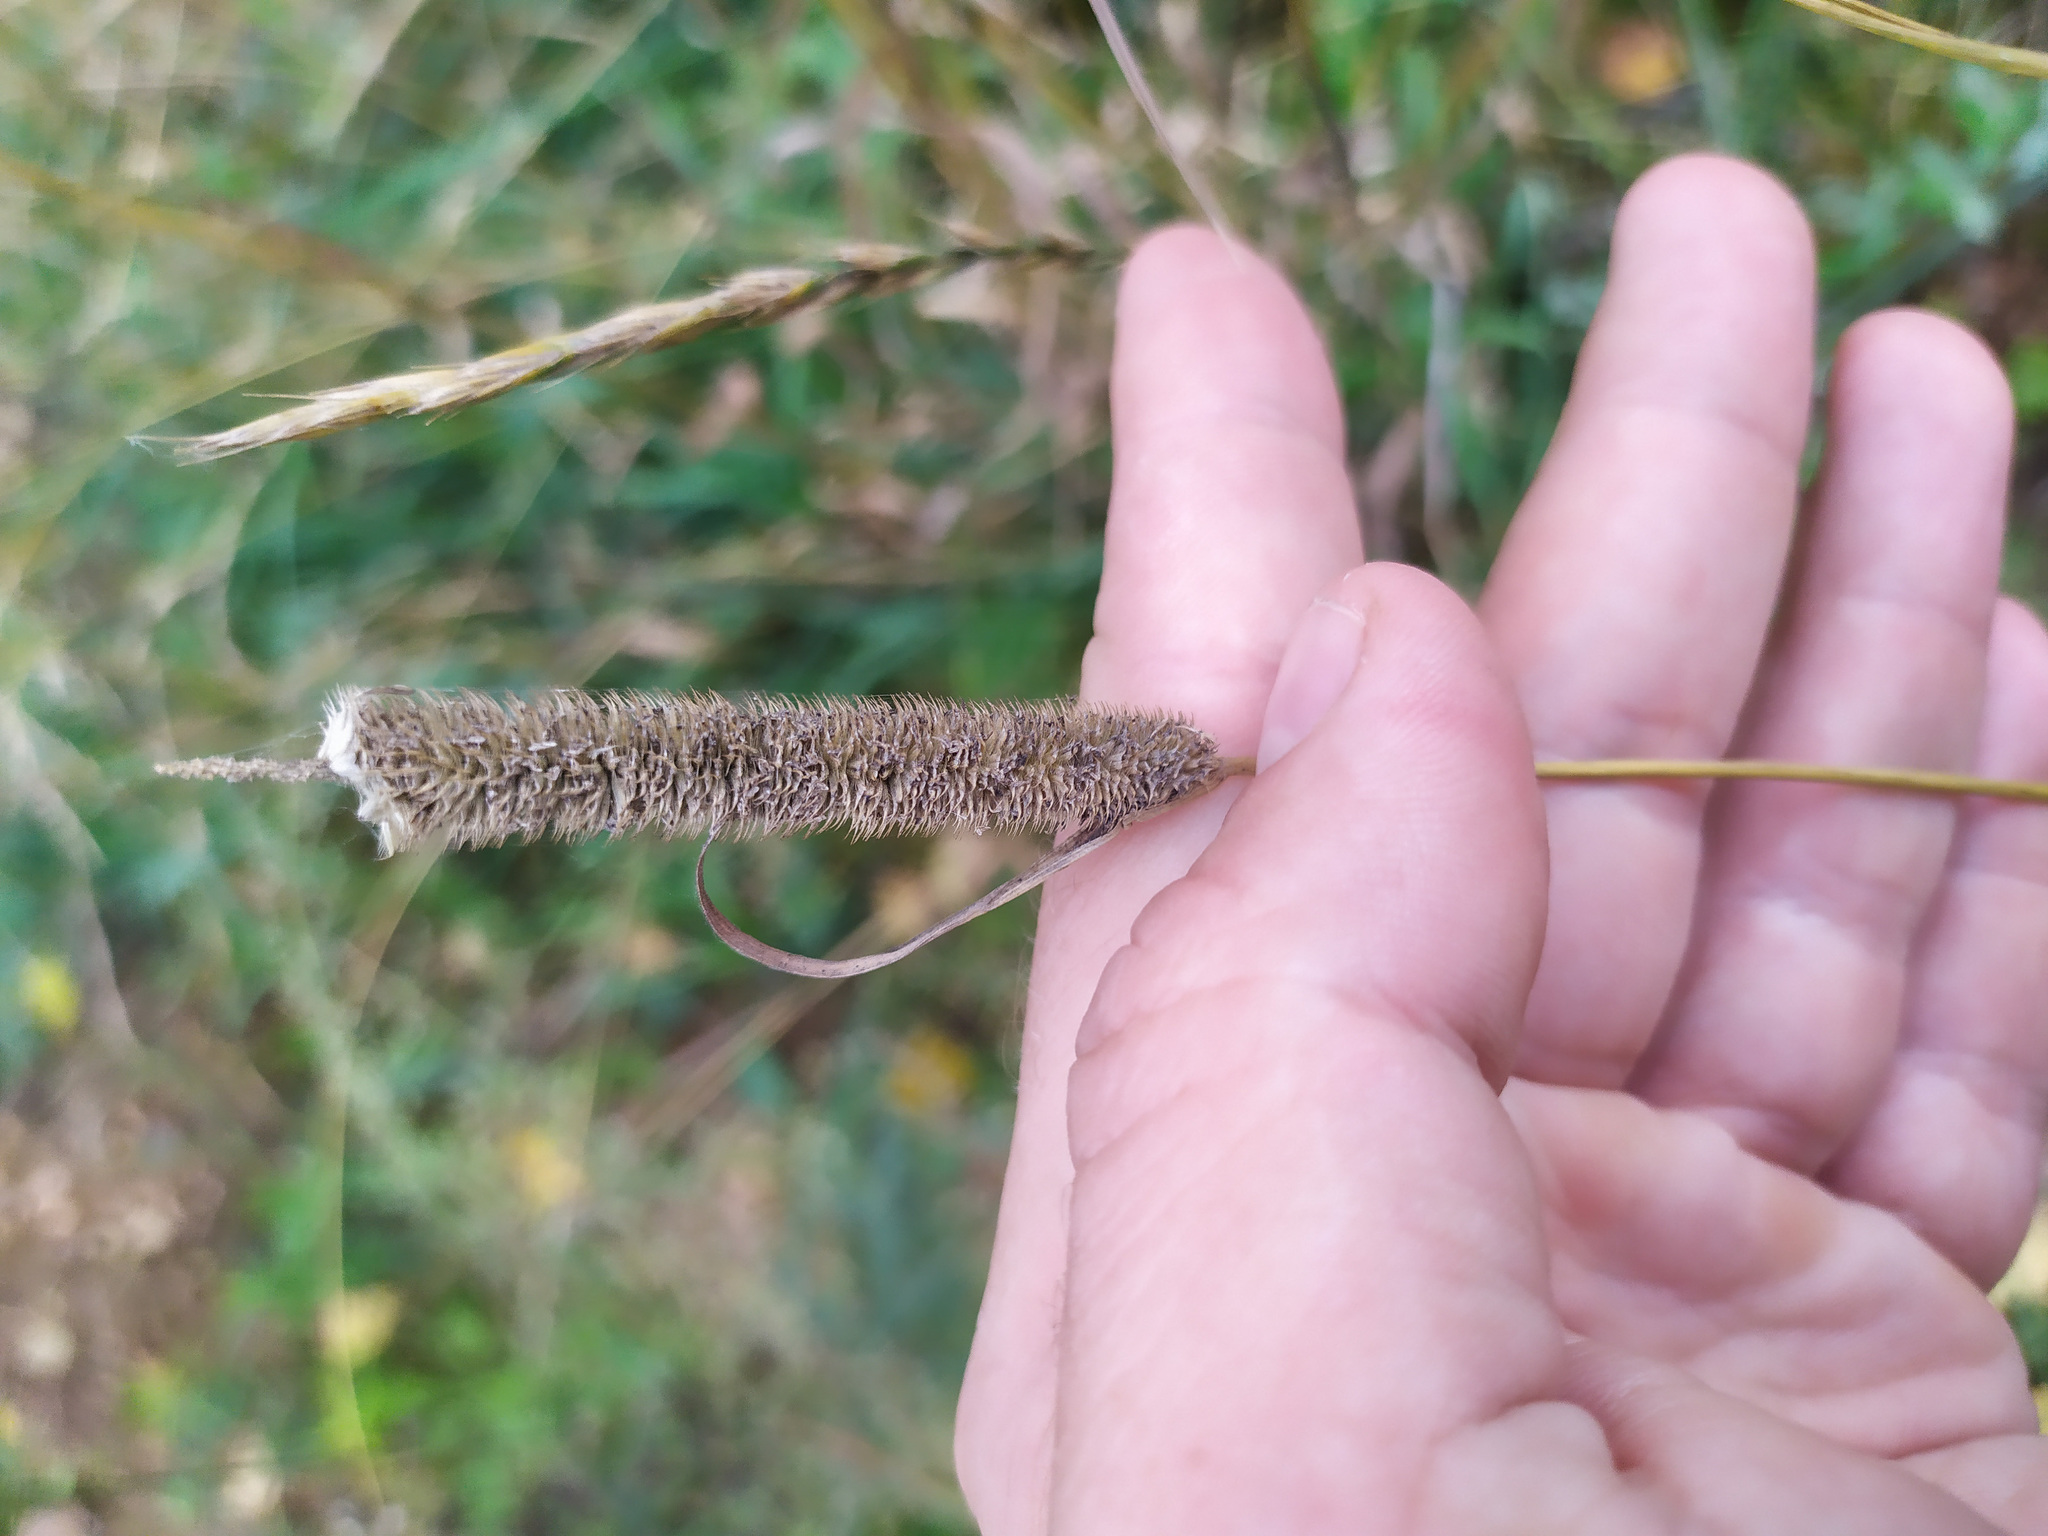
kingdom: Plantae
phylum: Tracheophyta
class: Liliopsida
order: Poales
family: Poaceae
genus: Phleum
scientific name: Phleum pratense
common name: Timothy grass
